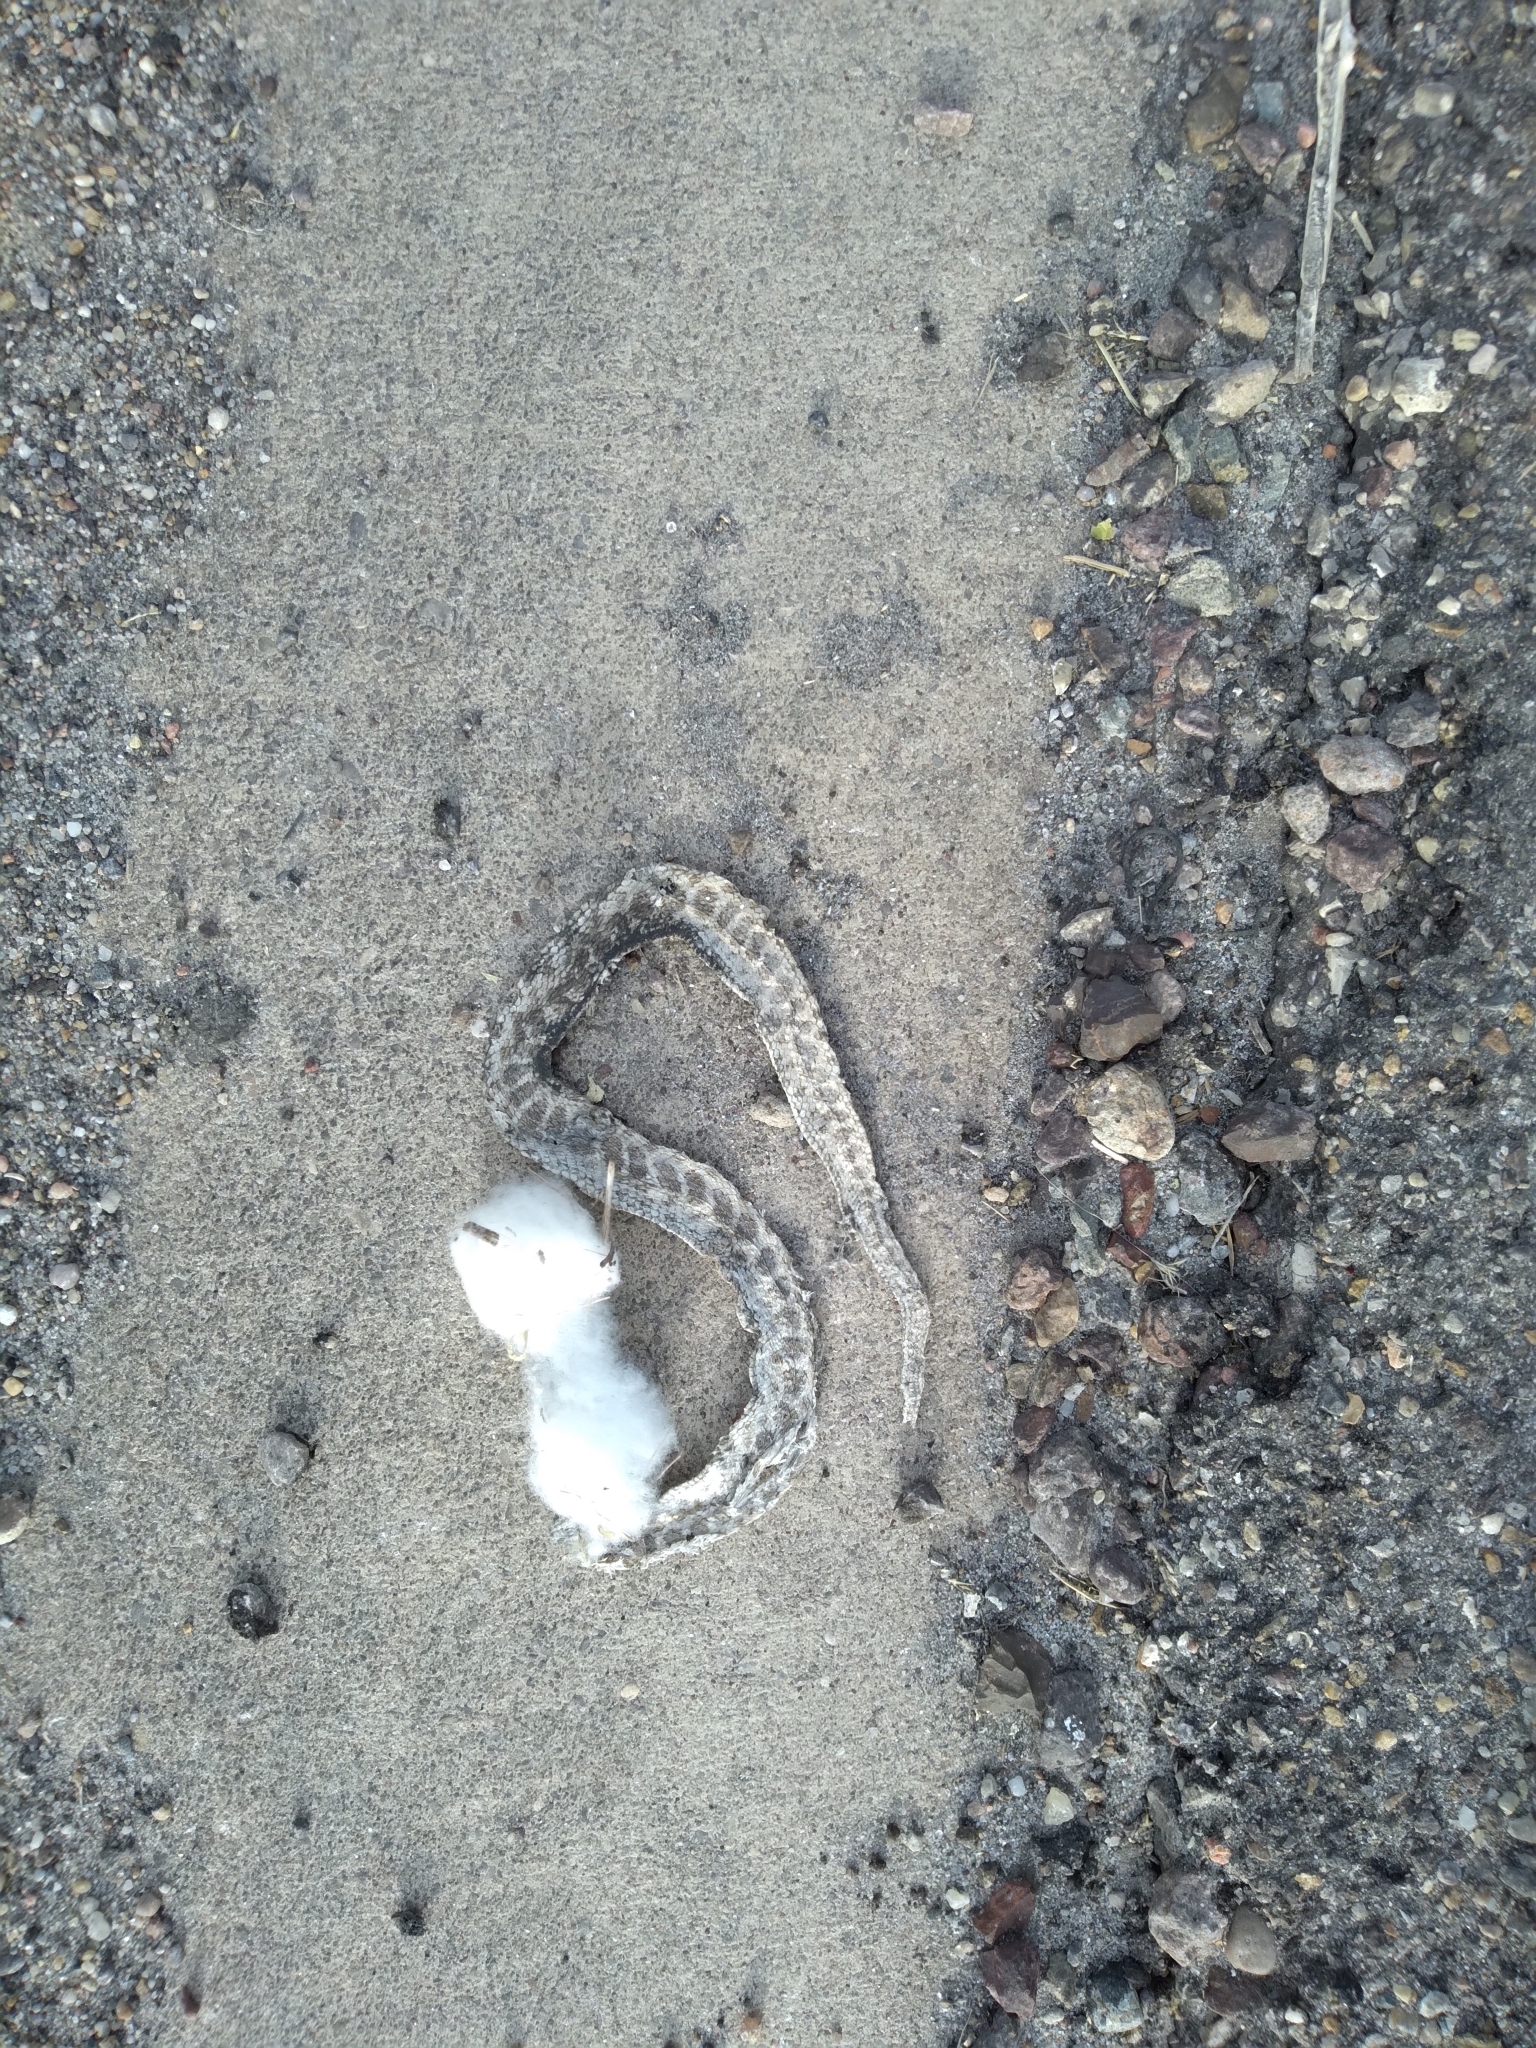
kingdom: Animalia
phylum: Chordata
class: Squamata
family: Colubridae
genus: Hypsiglena
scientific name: Hypsiglena jani
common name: Chihuahuan nightsnake
